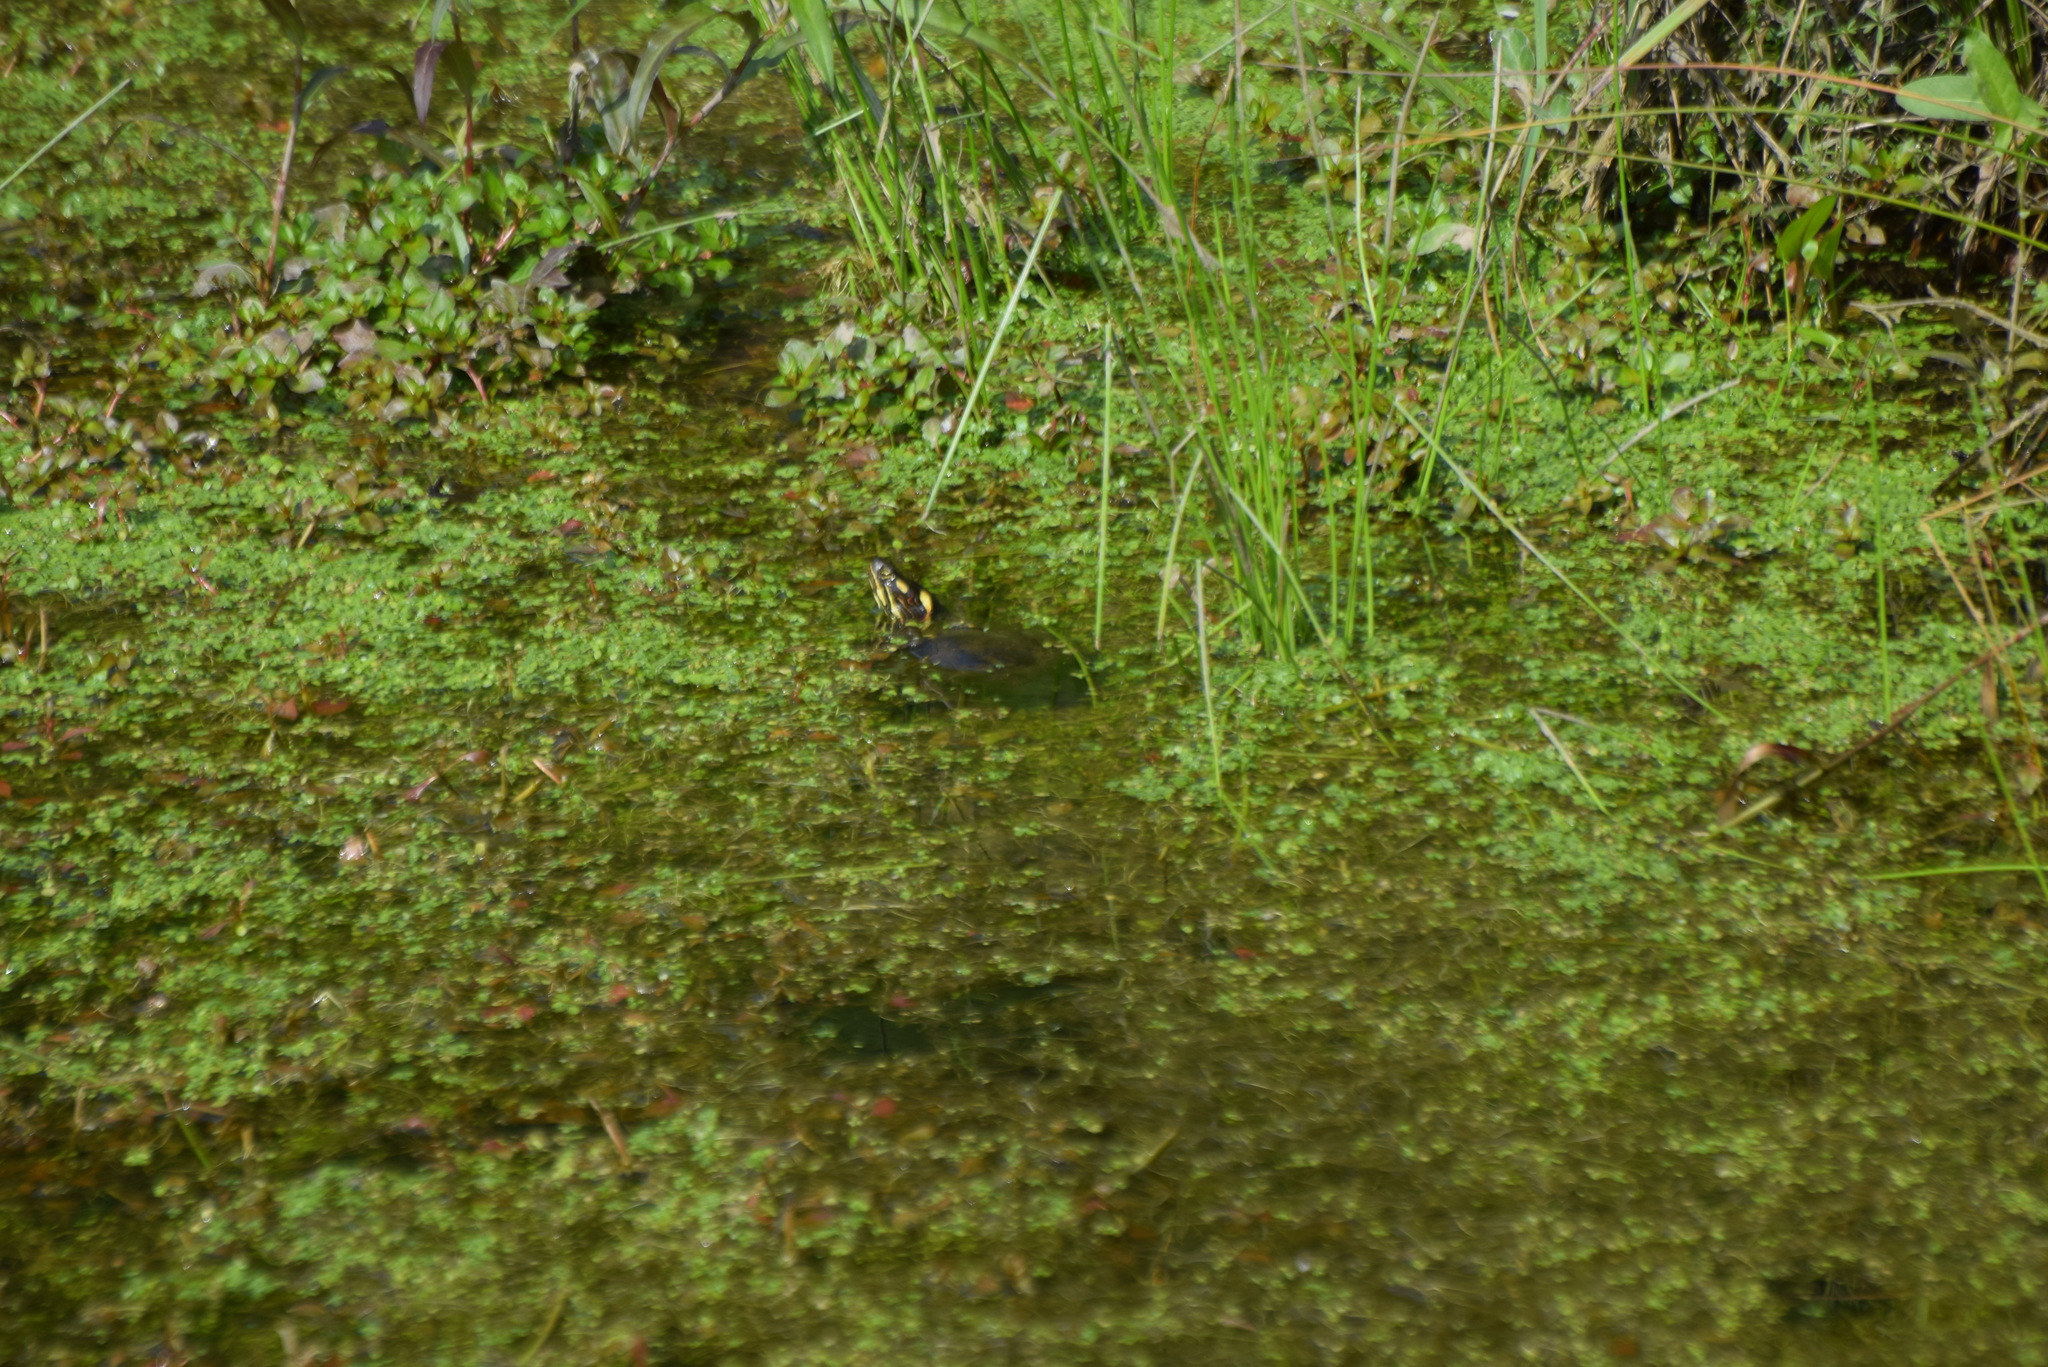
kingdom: Animalia
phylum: Chordata
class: Testudines
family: Emydidae
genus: Chrysemys
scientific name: Chrysemys picta
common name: Painted turtle
